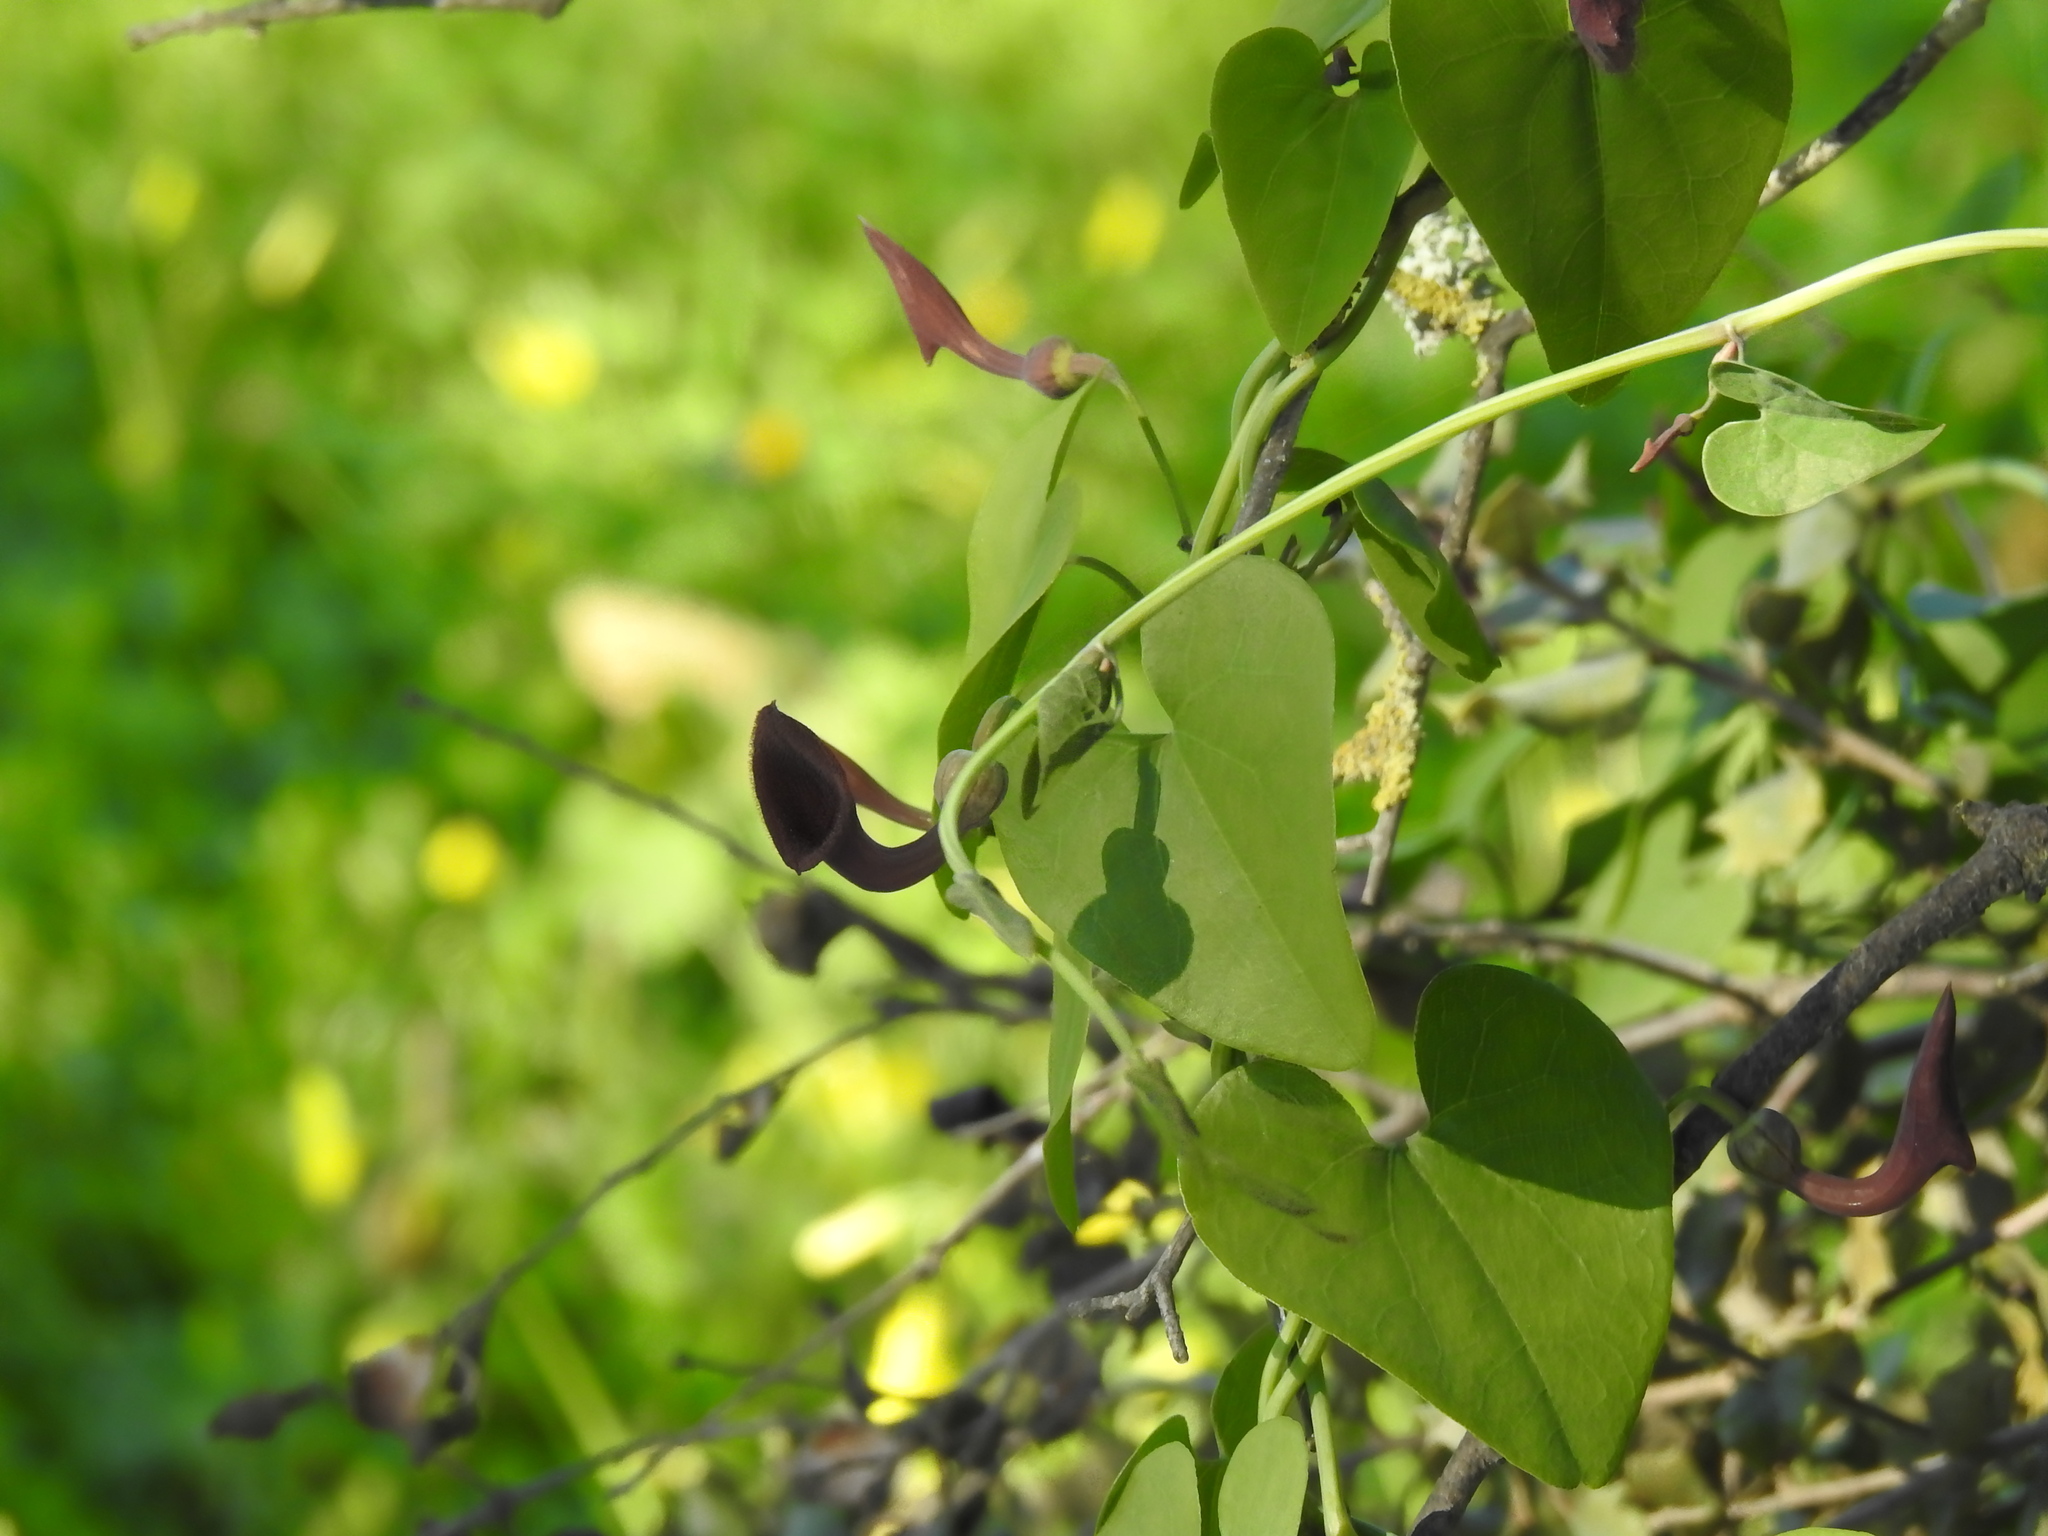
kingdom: Plantae
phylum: Tracheophyta
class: Magnoliopsida
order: Piperales
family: Aristolochiaceae
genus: Aristolochia
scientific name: Aristolochia baetica
